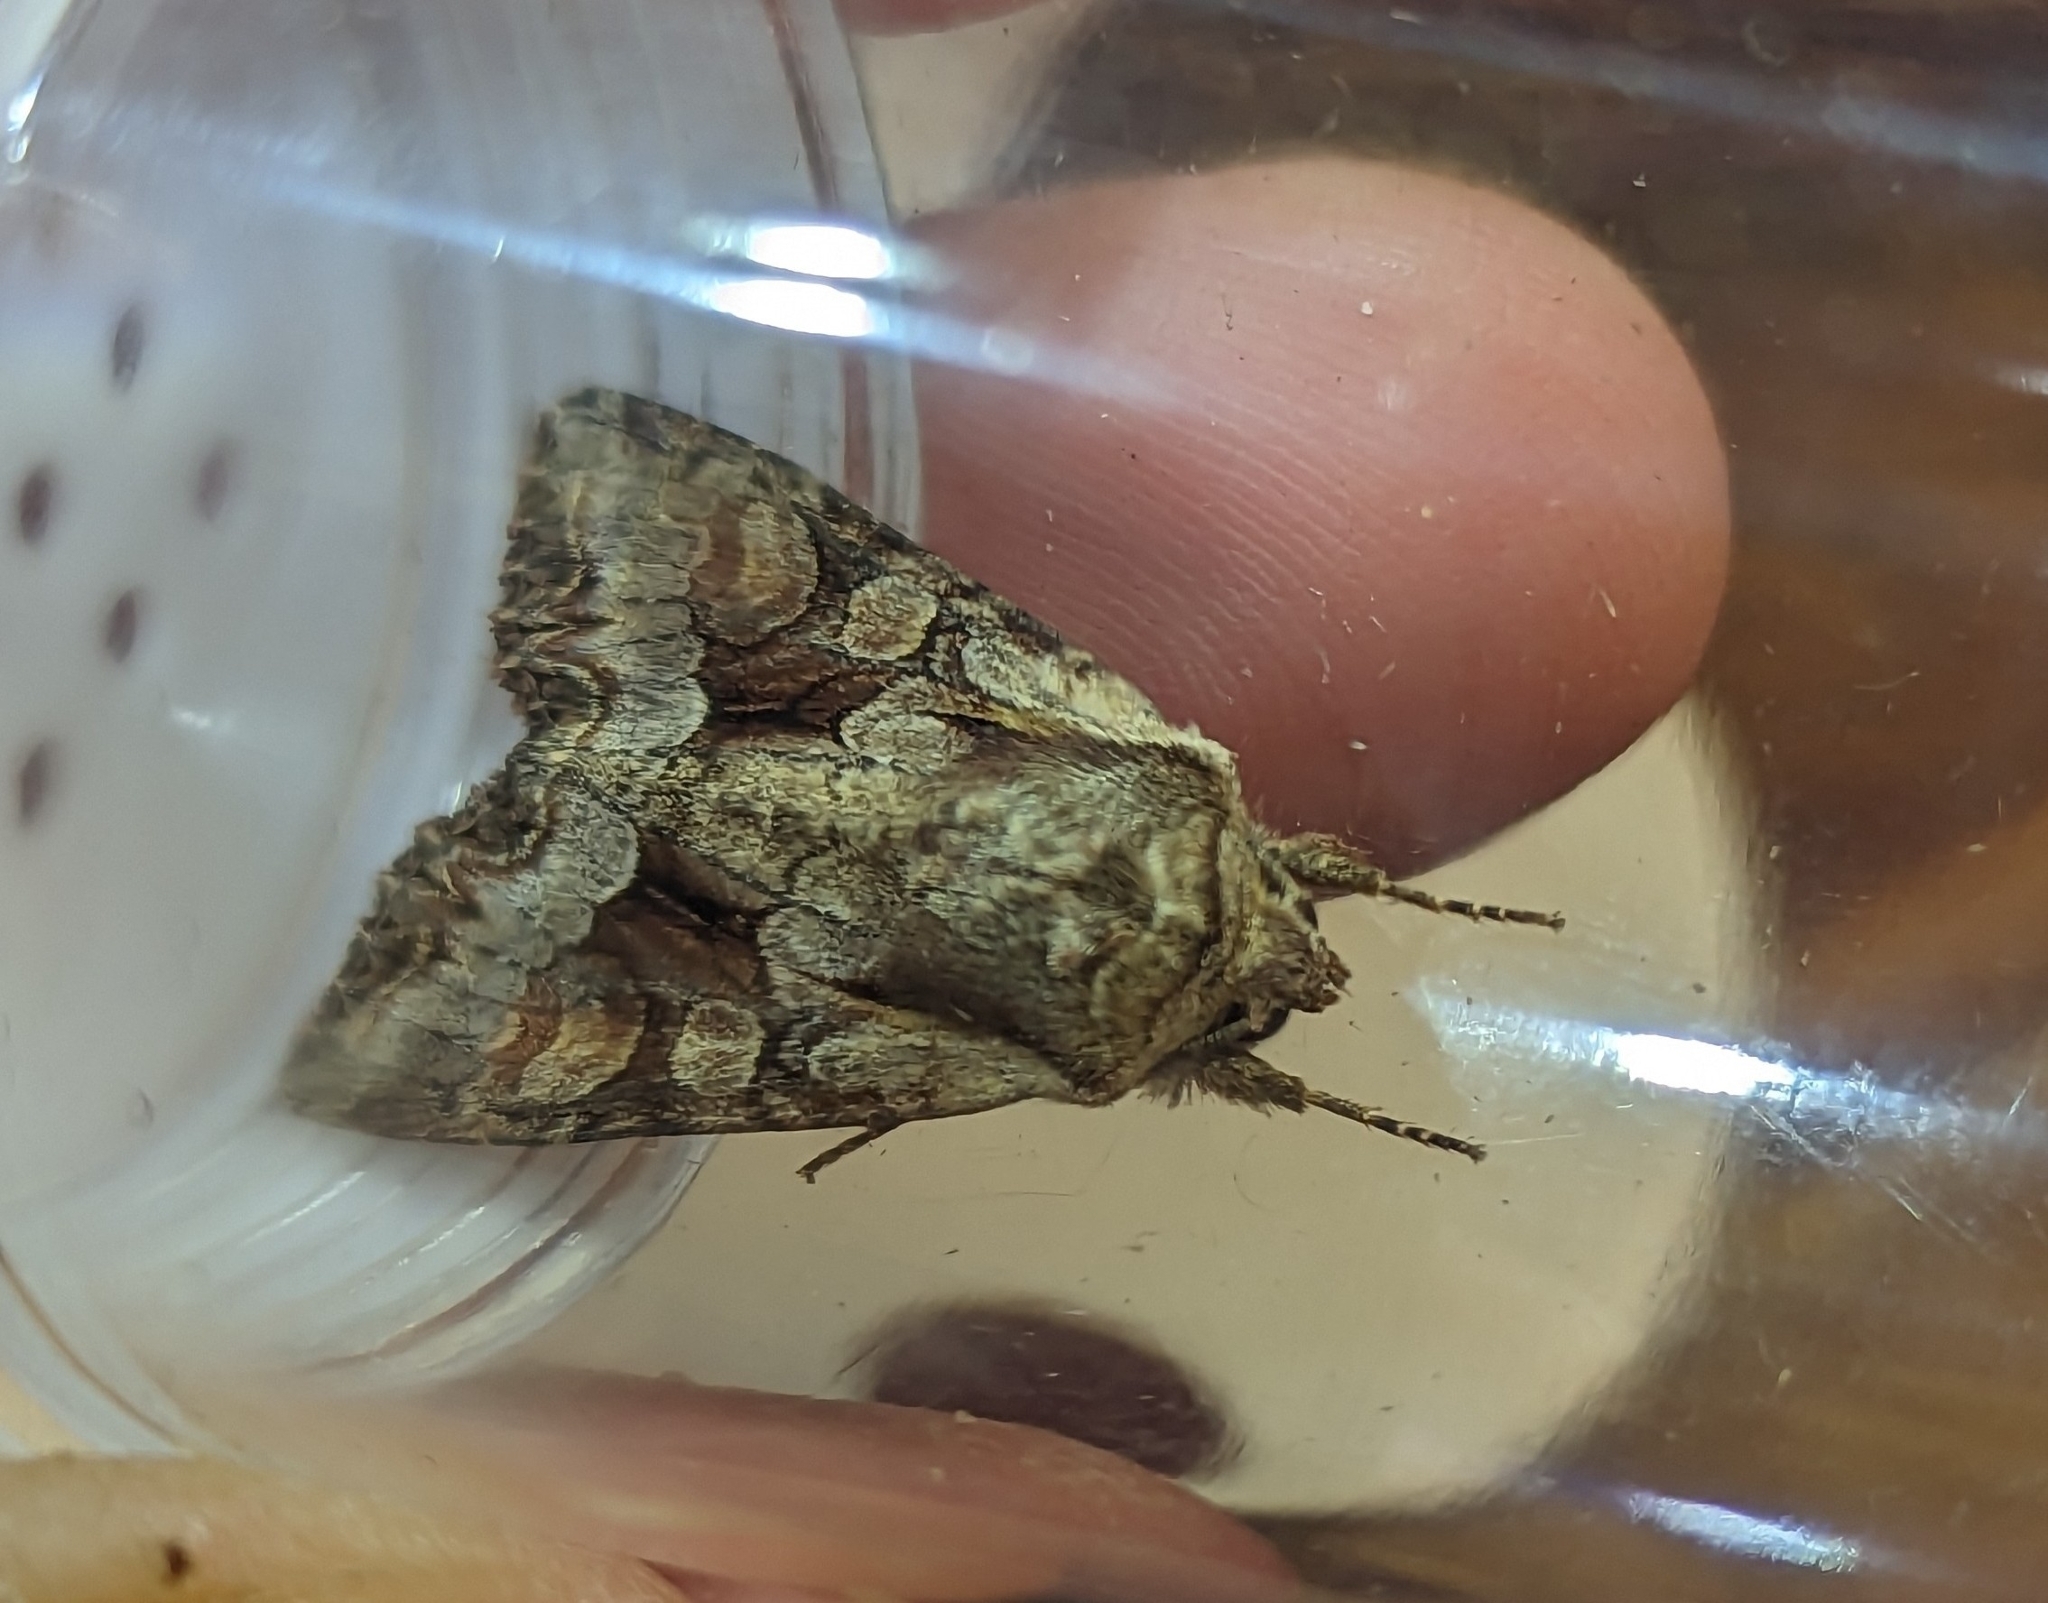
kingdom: Animalia
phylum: Arthropoda
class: Insecta
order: Lepidoptera
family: Noctuidae
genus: Lacanobia
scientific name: Lacanobia w-latinum
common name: Light brocade
